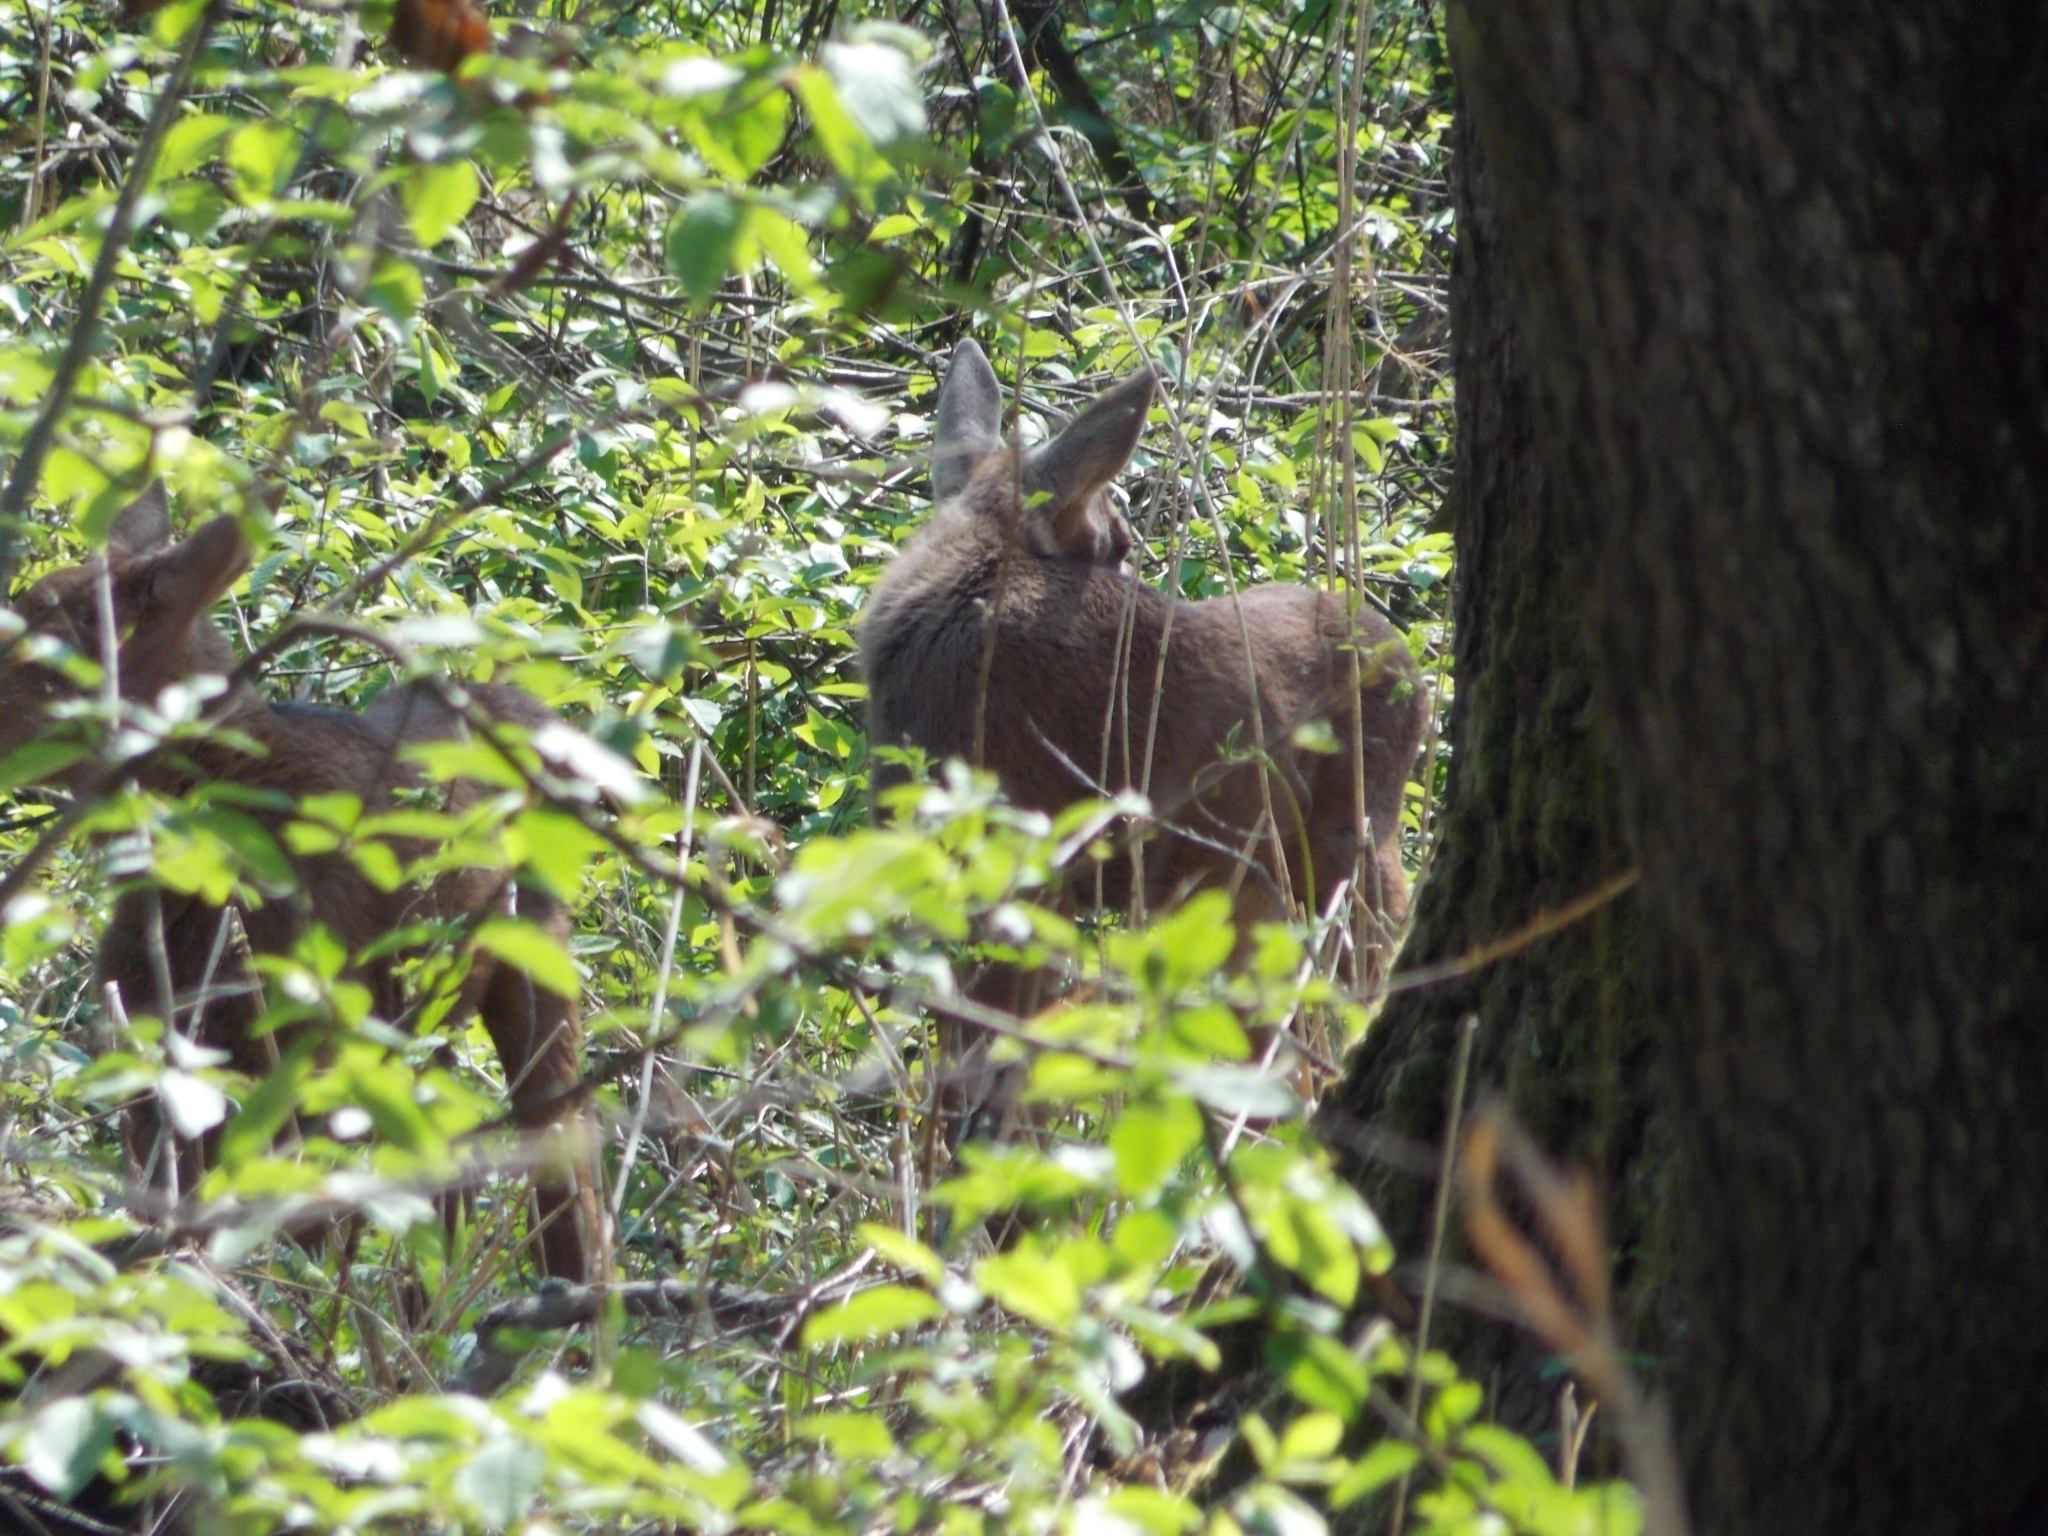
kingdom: Animalia
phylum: Chordata
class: Mammalia
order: Artiodactyla
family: Cervidae
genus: Alces
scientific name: Alces alces
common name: Moose
